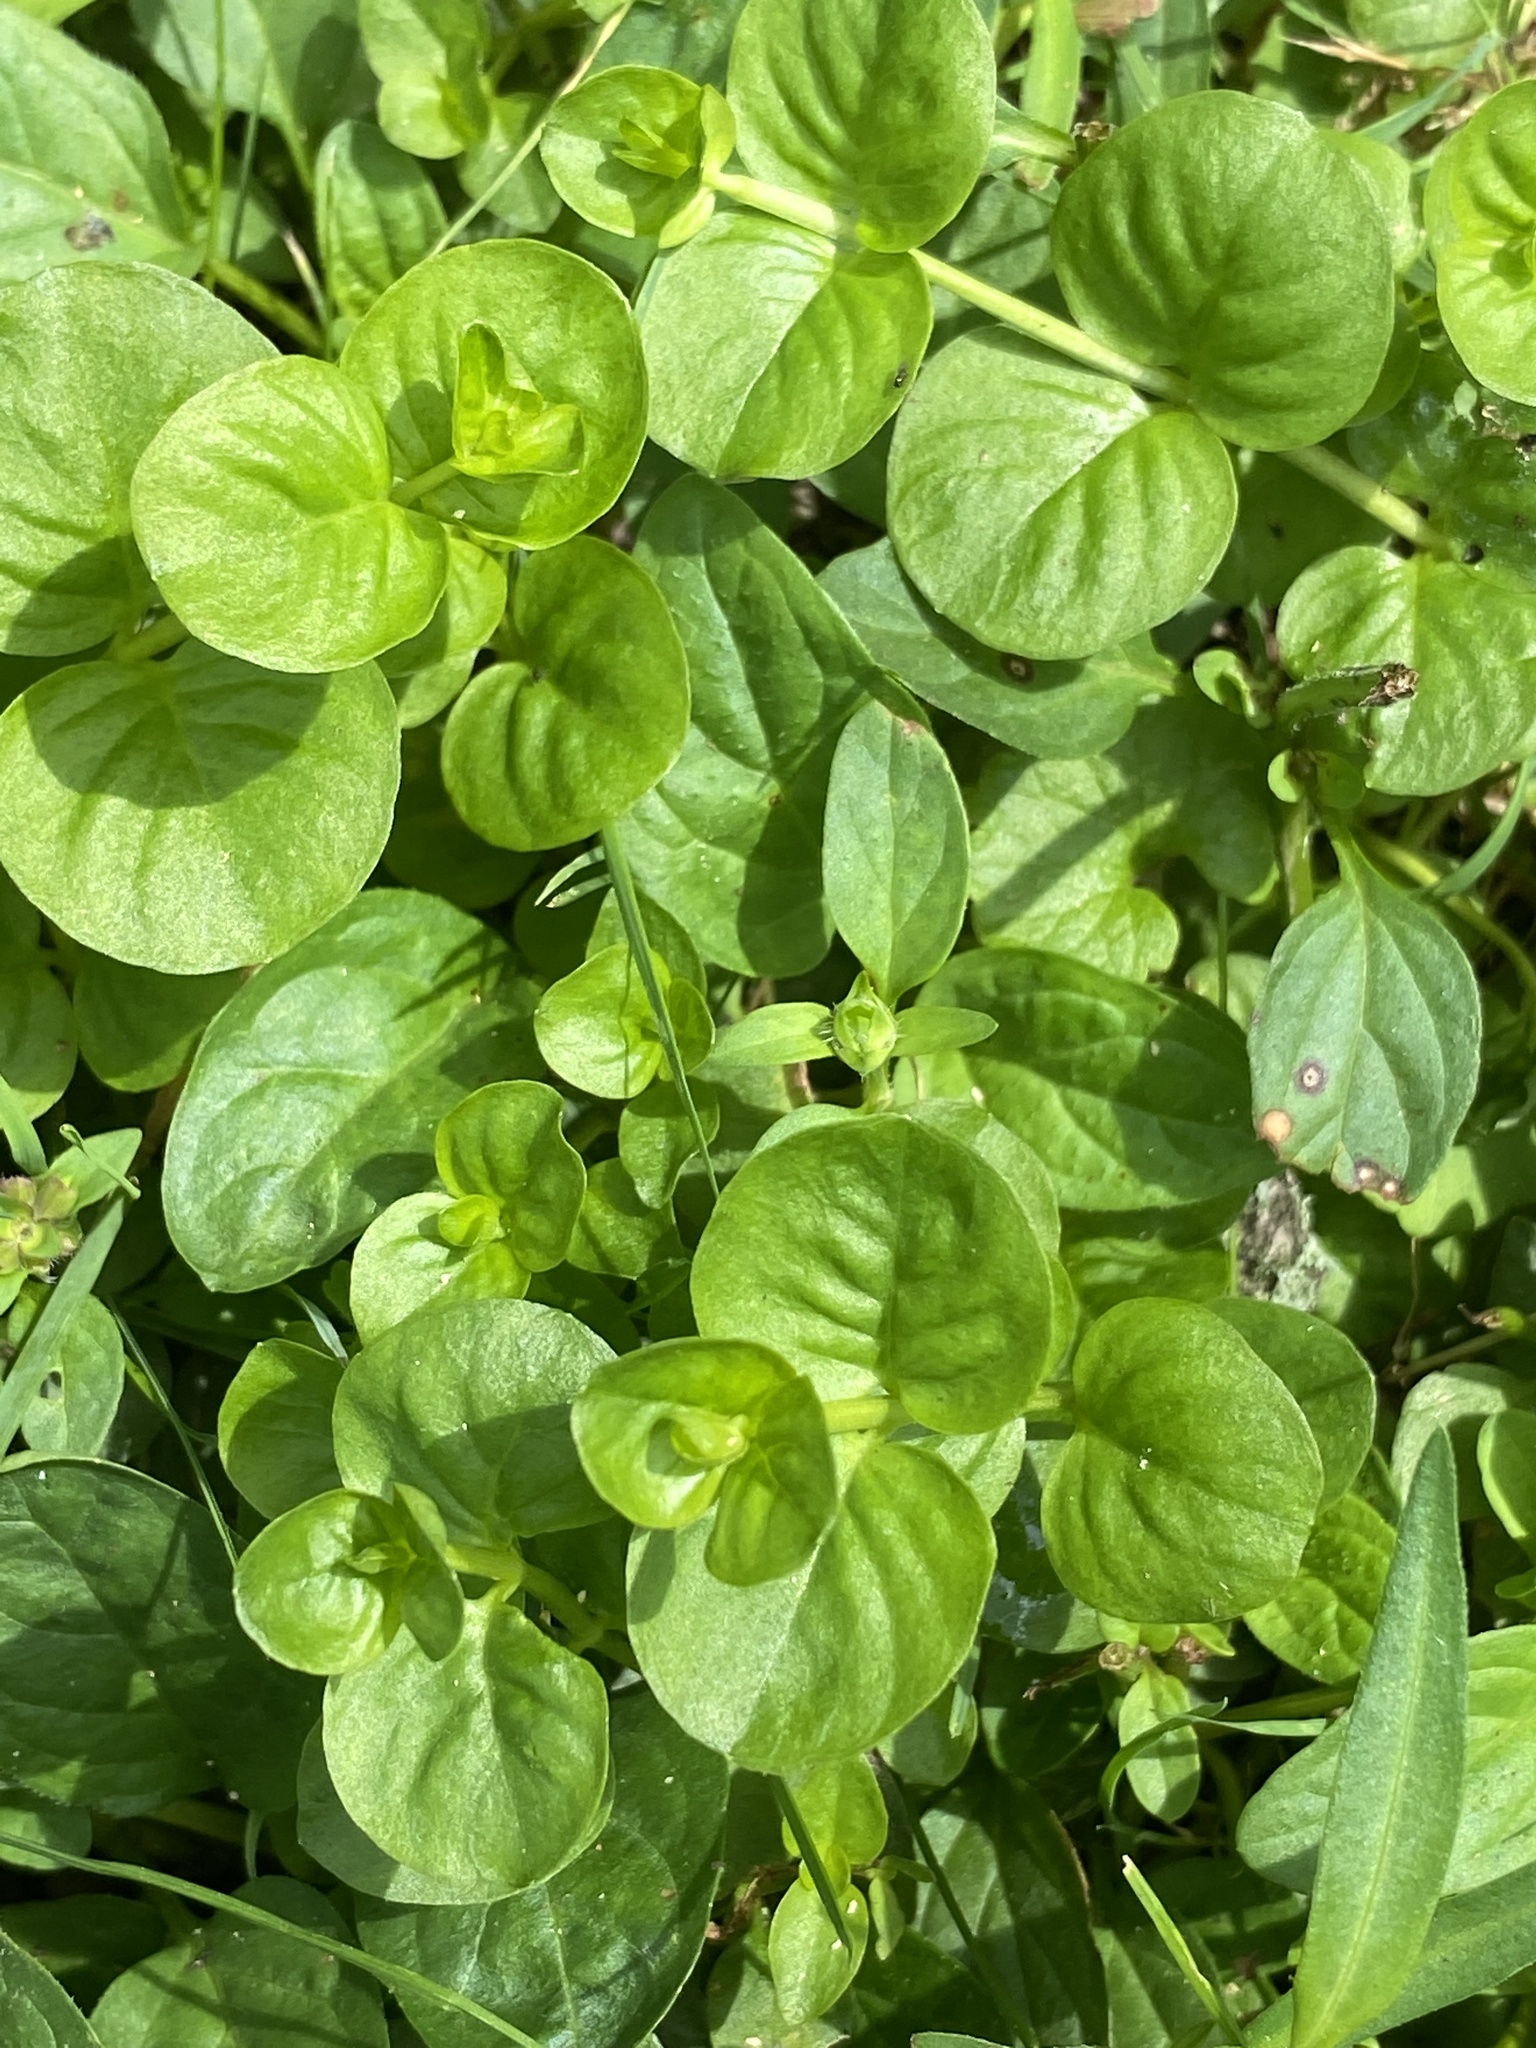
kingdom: Plantae
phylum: Tracheophyta
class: Magnoliopsida
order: Ericales
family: Primulaceae
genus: Lysimachia
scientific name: Lysimachia nummularia
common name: Moneywort
